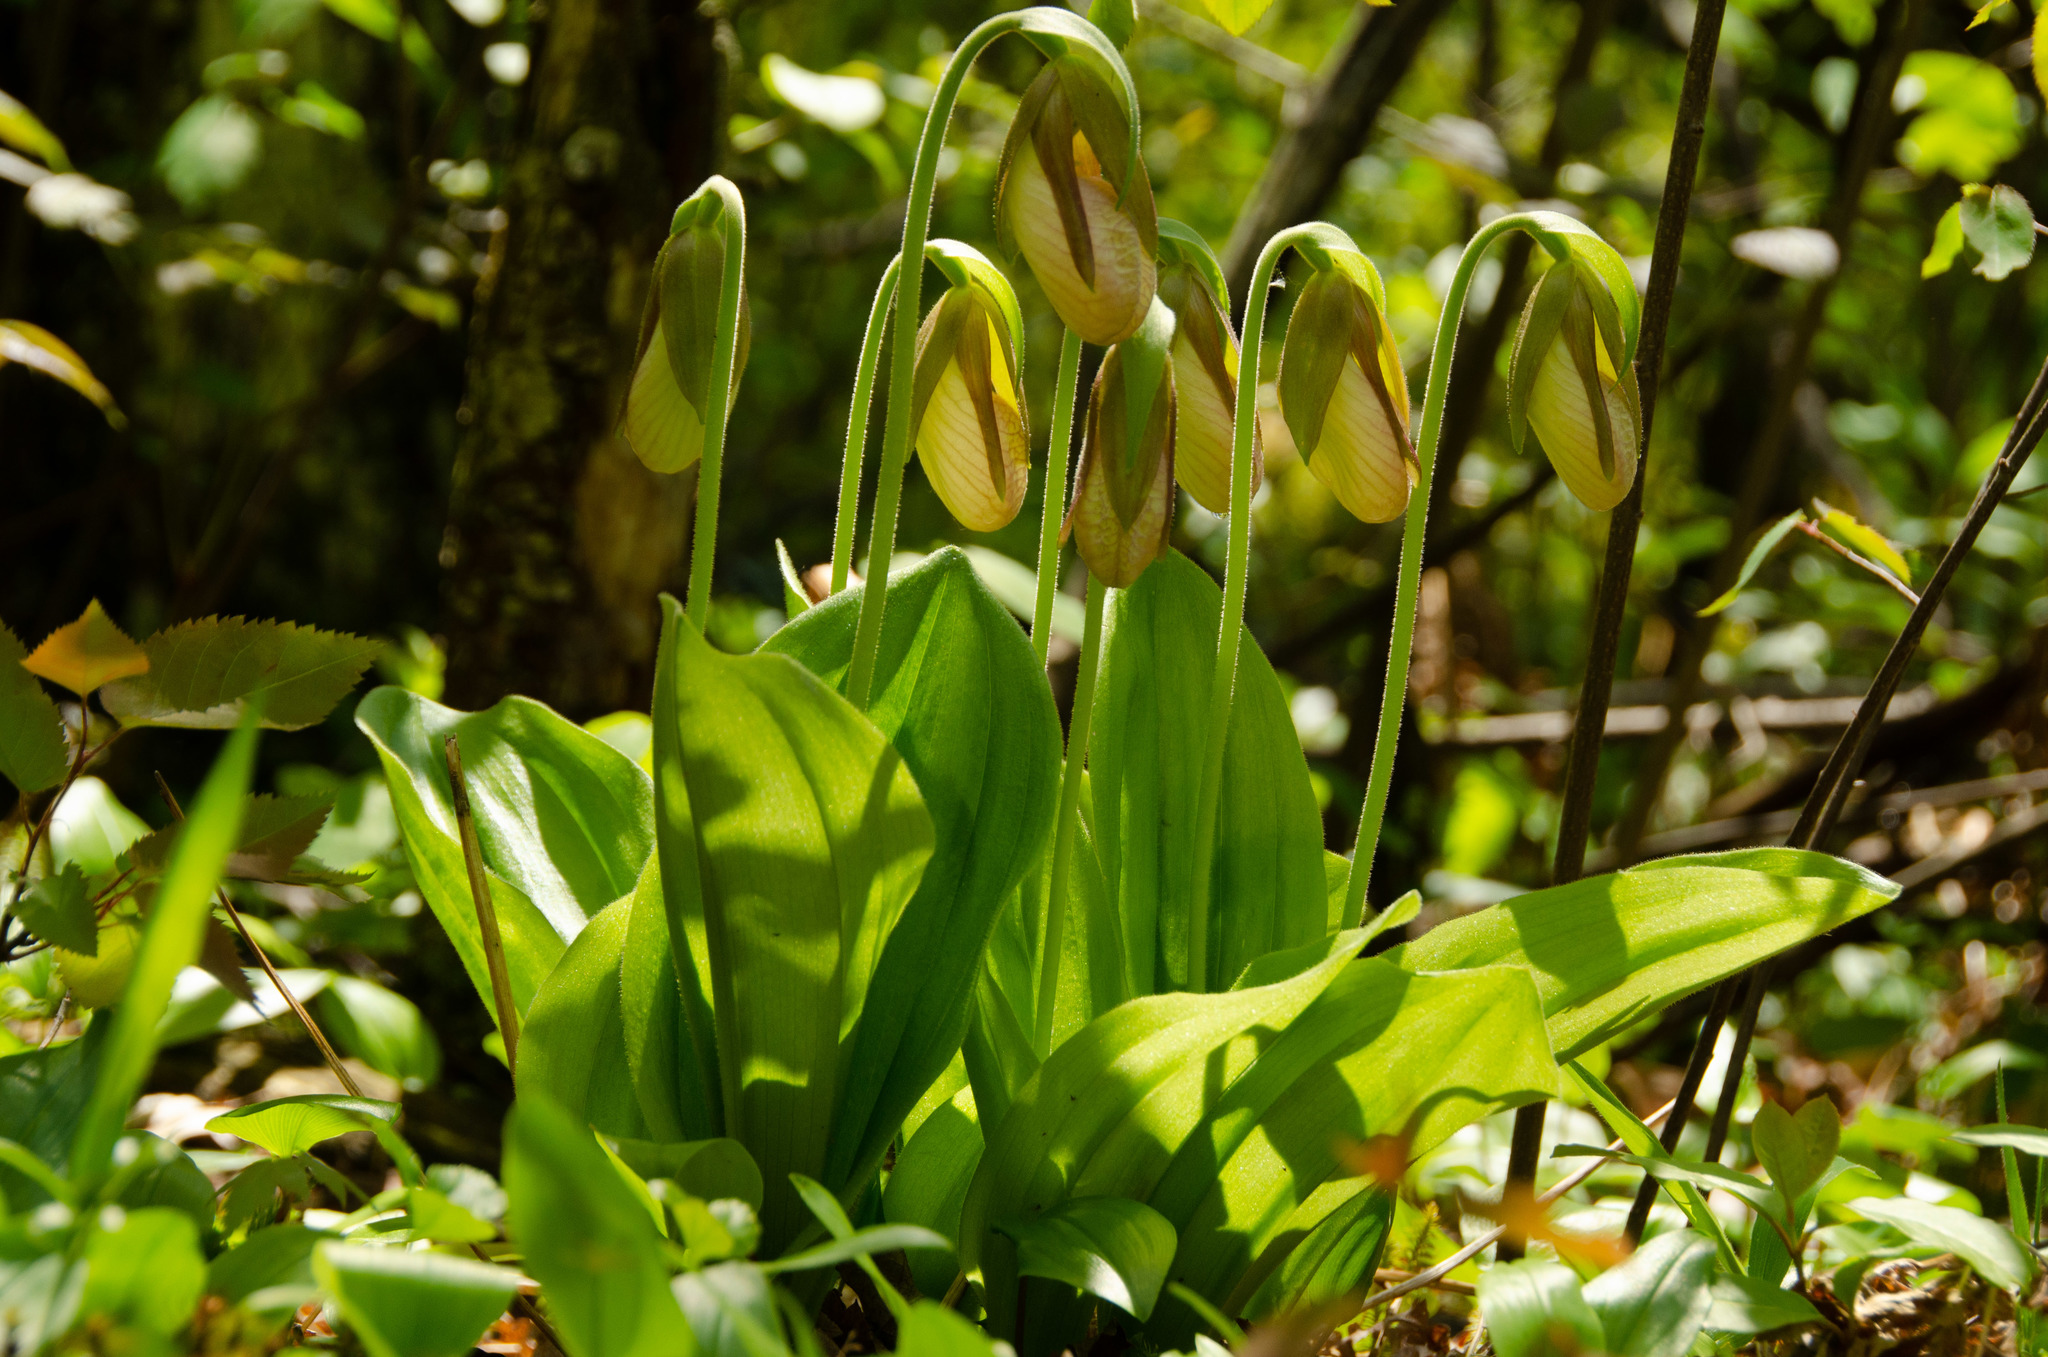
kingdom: Plantae
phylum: Tracheophyta
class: Liliopsida
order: Asparagales
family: Orchidaceae
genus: Cypripedium
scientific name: Cypripedium acaule
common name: Pink lady's-slipper
